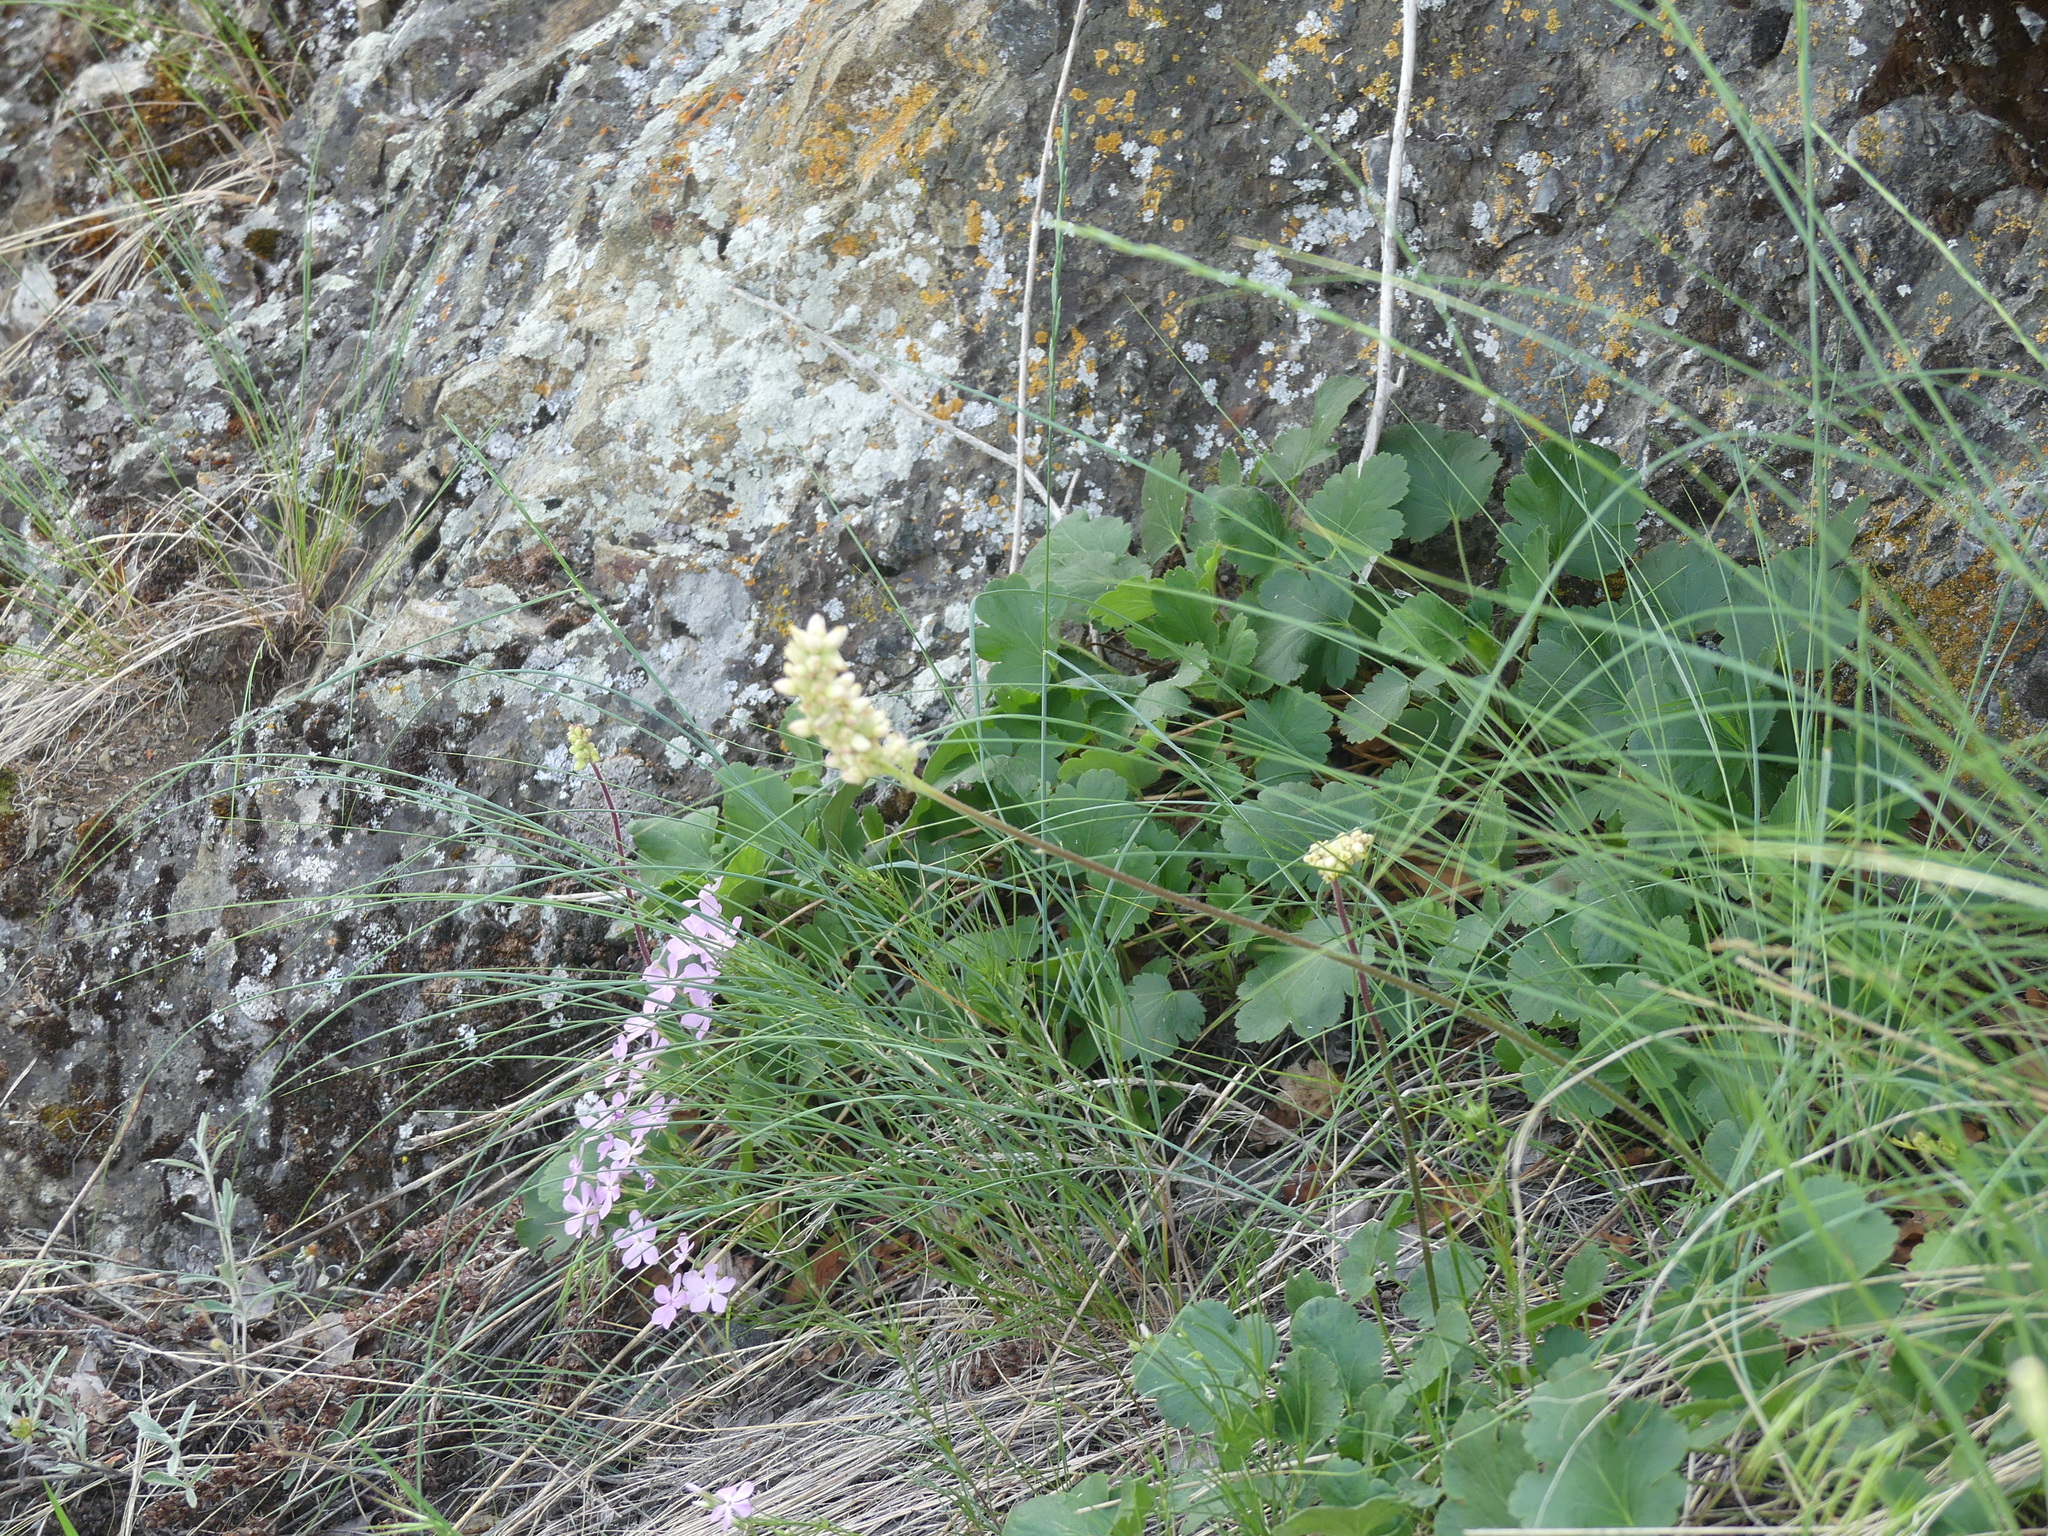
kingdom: Plantae
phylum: Tracheophyta
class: Magnoliopsida
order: Saxifragales
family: Saxifragaceae
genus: Heuchera
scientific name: Heuchera cylindrica
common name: Mat alumroot
